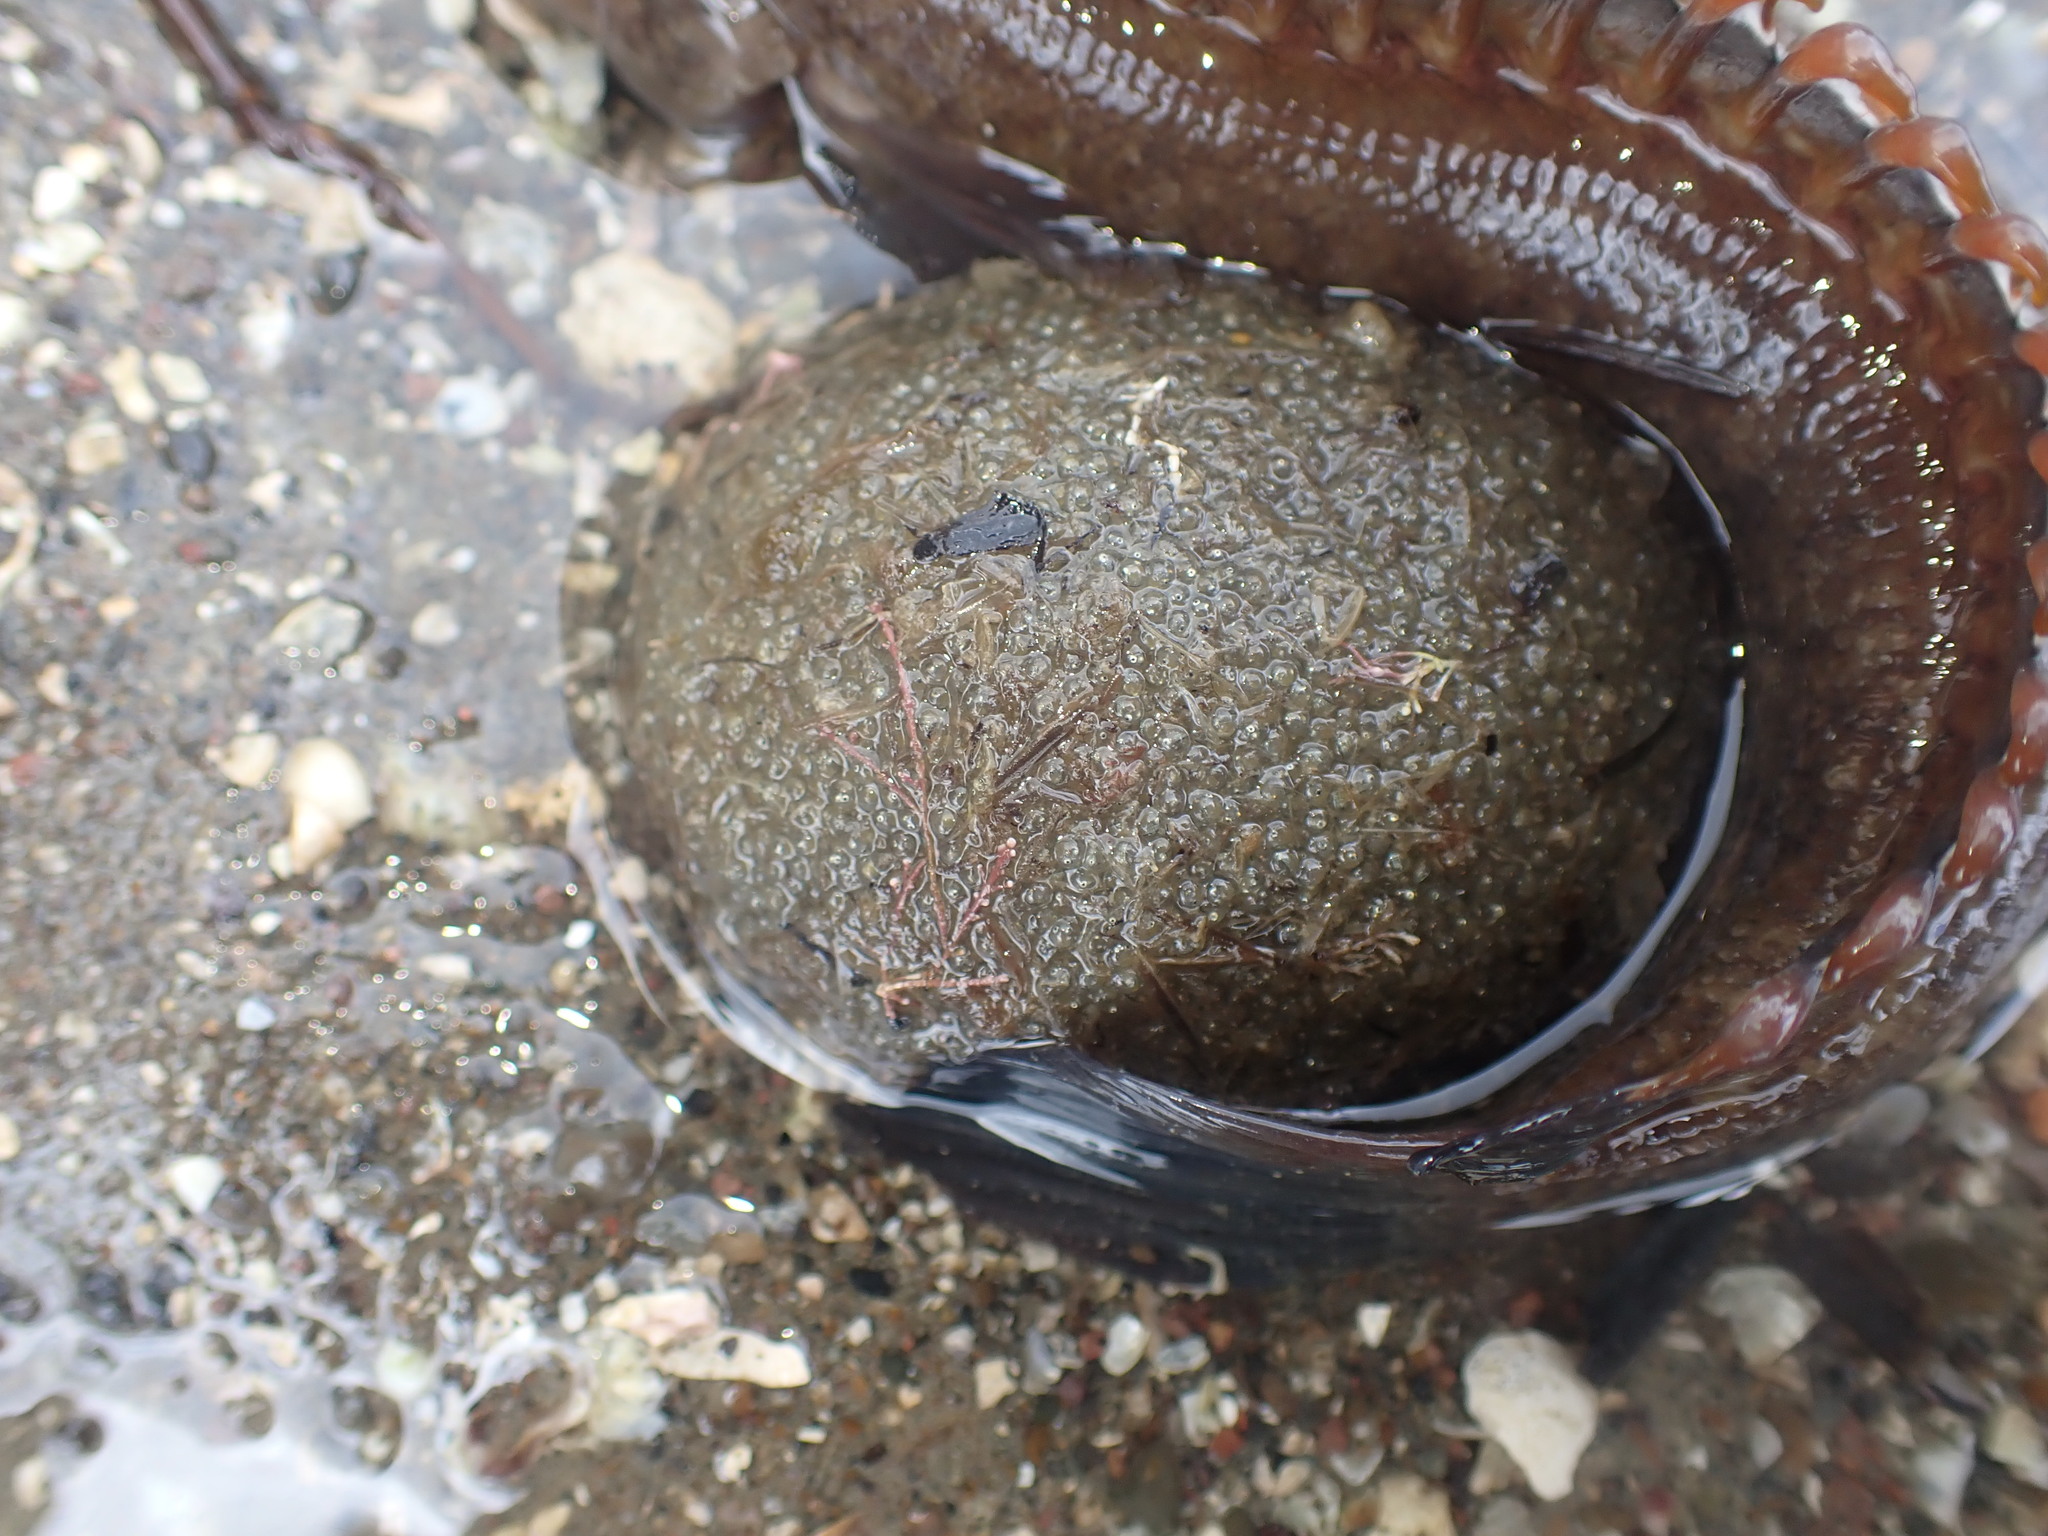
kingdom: Animalia
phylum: Chordata
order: Perciformes
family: Plesiopidae
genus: Acanthoclinus
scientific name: Acanthoclinus marilynae
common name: Stout rockfish
